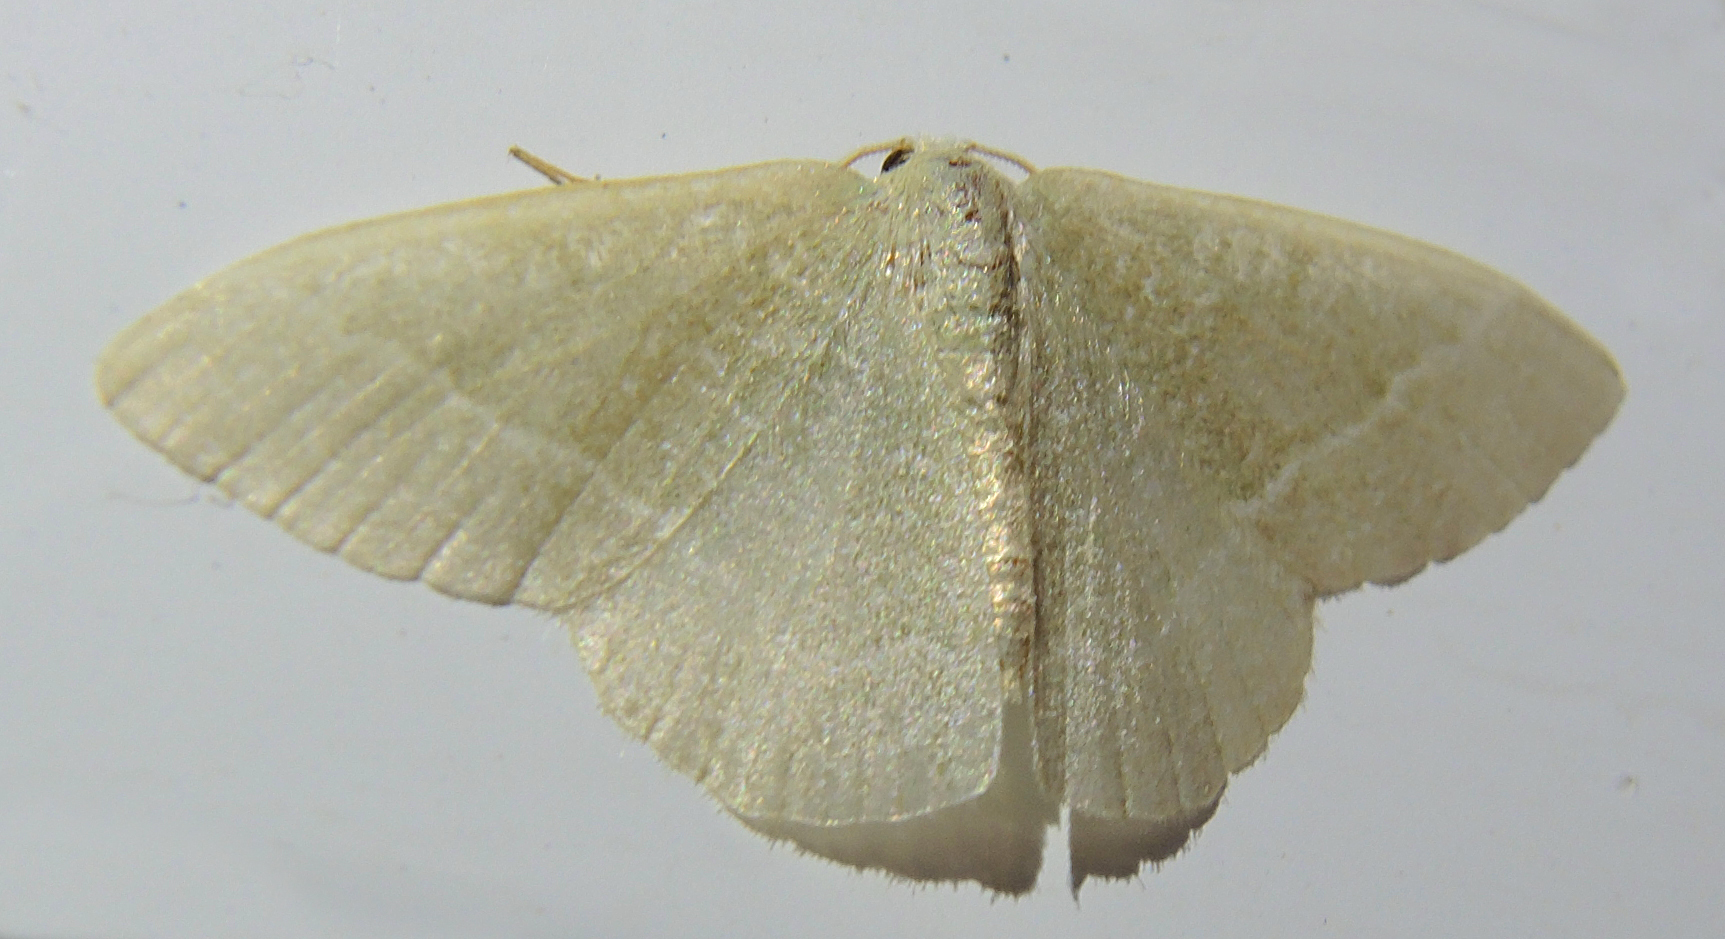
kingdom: Animalia
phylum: Arthropoda
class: Insecta
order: Lepidoptera
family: Geometridae
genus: Chlorissa
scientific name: Chlorissa etruscaria
